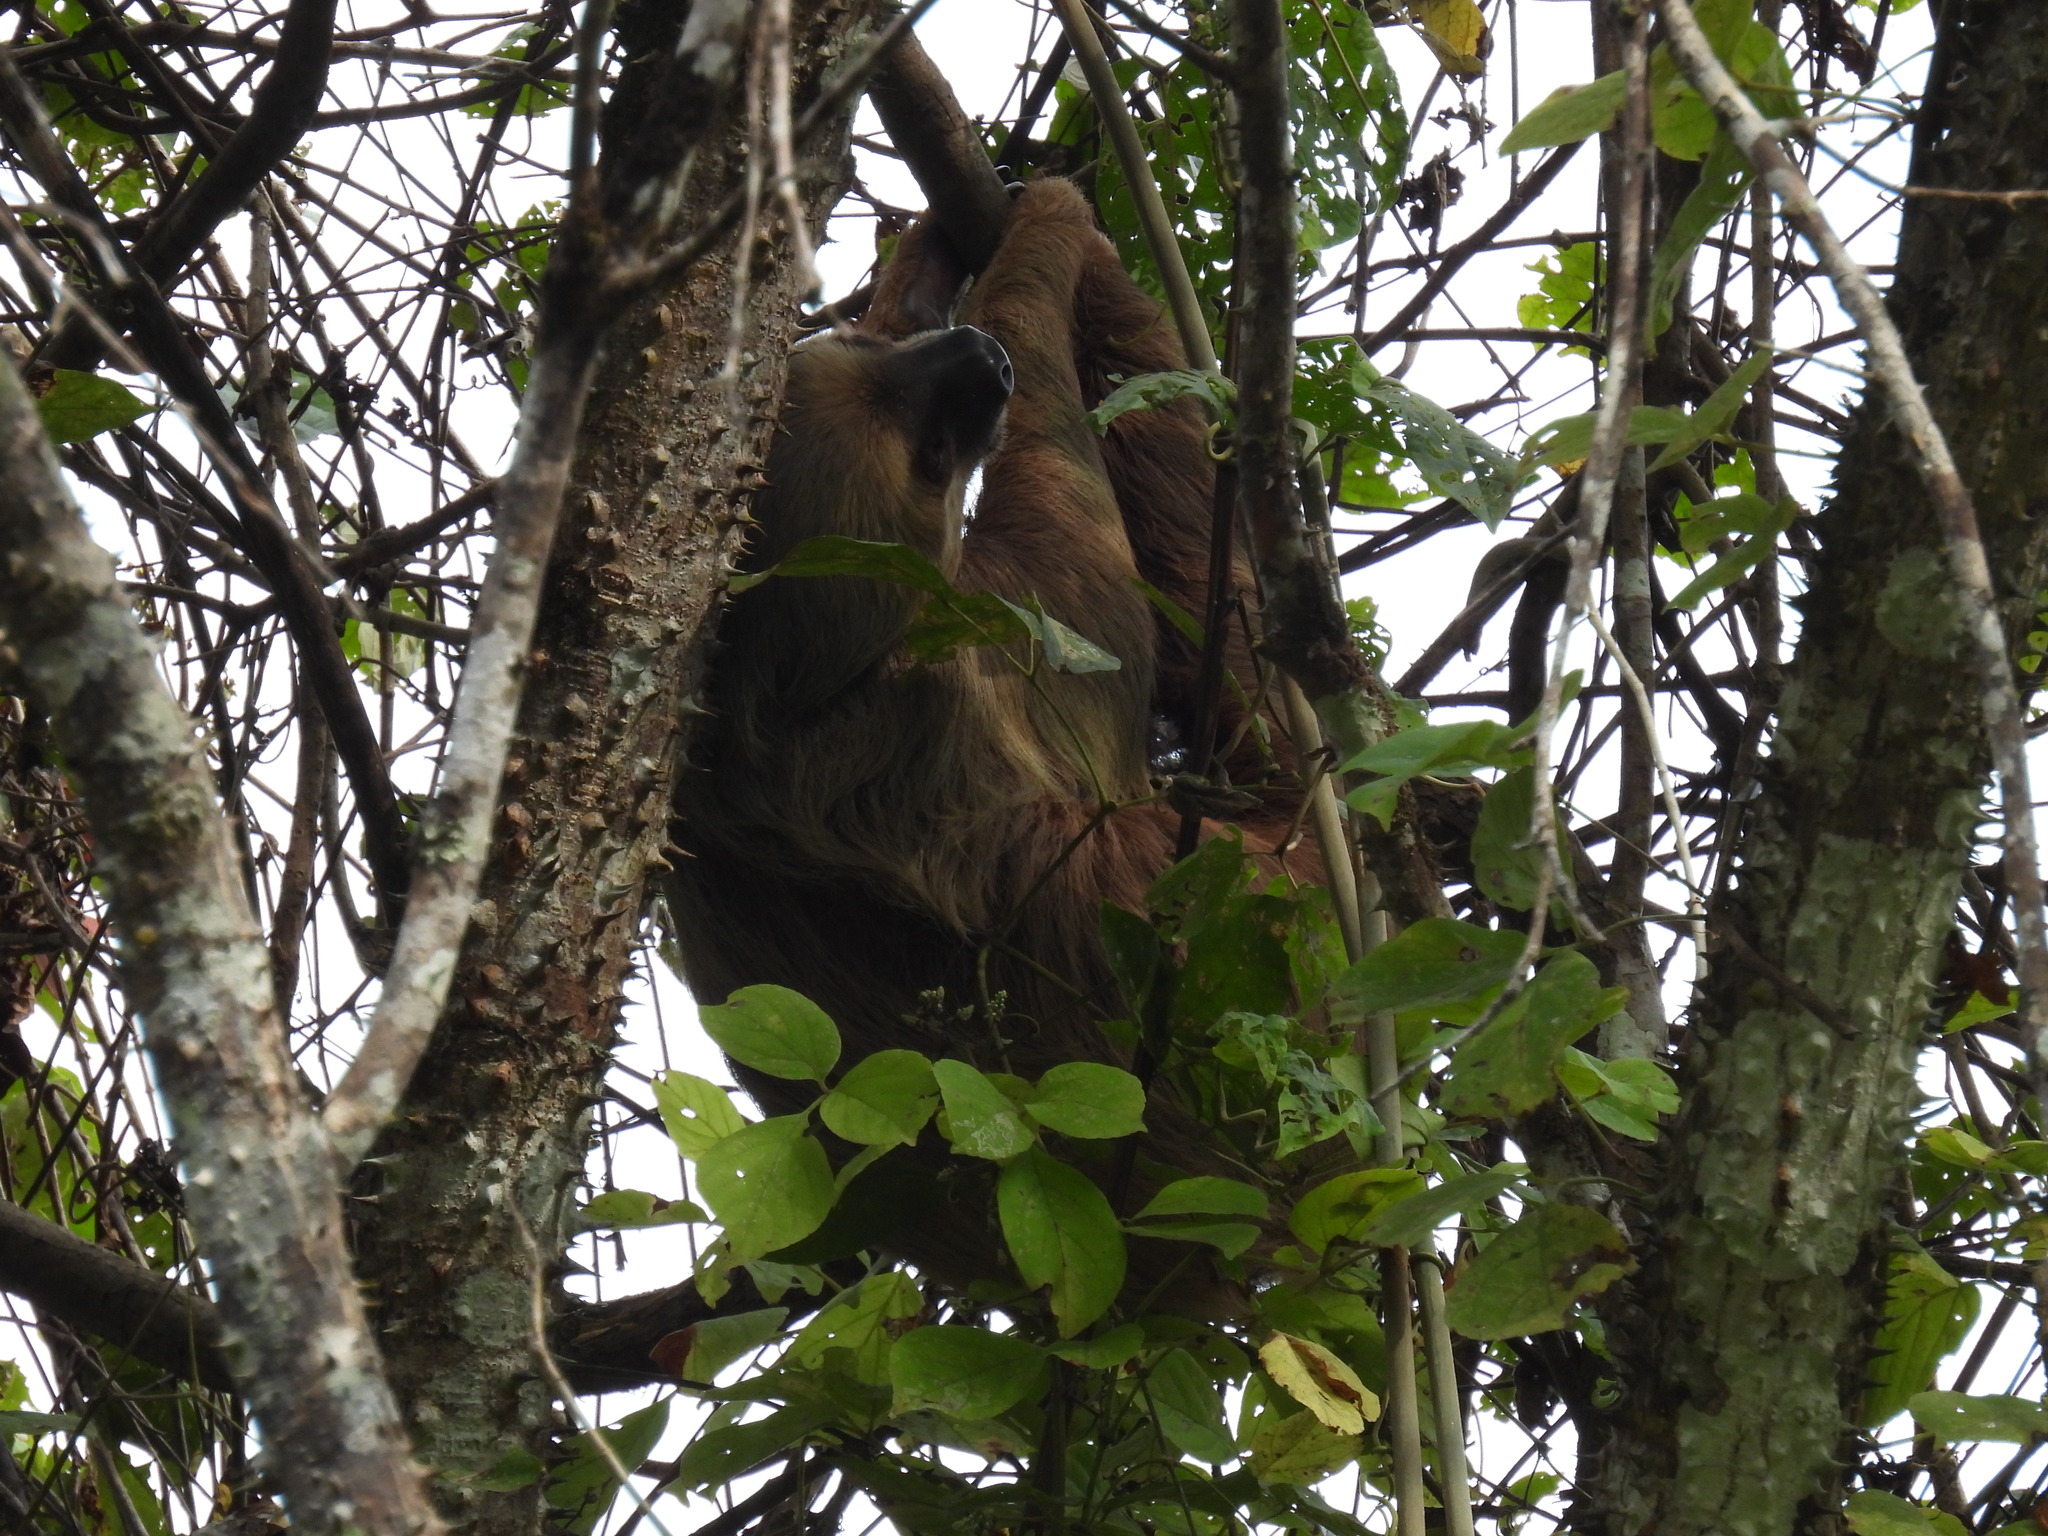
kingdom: Animalia
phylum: Chordata
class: Mammalia
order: Pilosa
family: Megalonychidae
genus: Choloepus
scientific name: Choloepus hoffmanni
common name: Hoffmann's two-toed sloth
